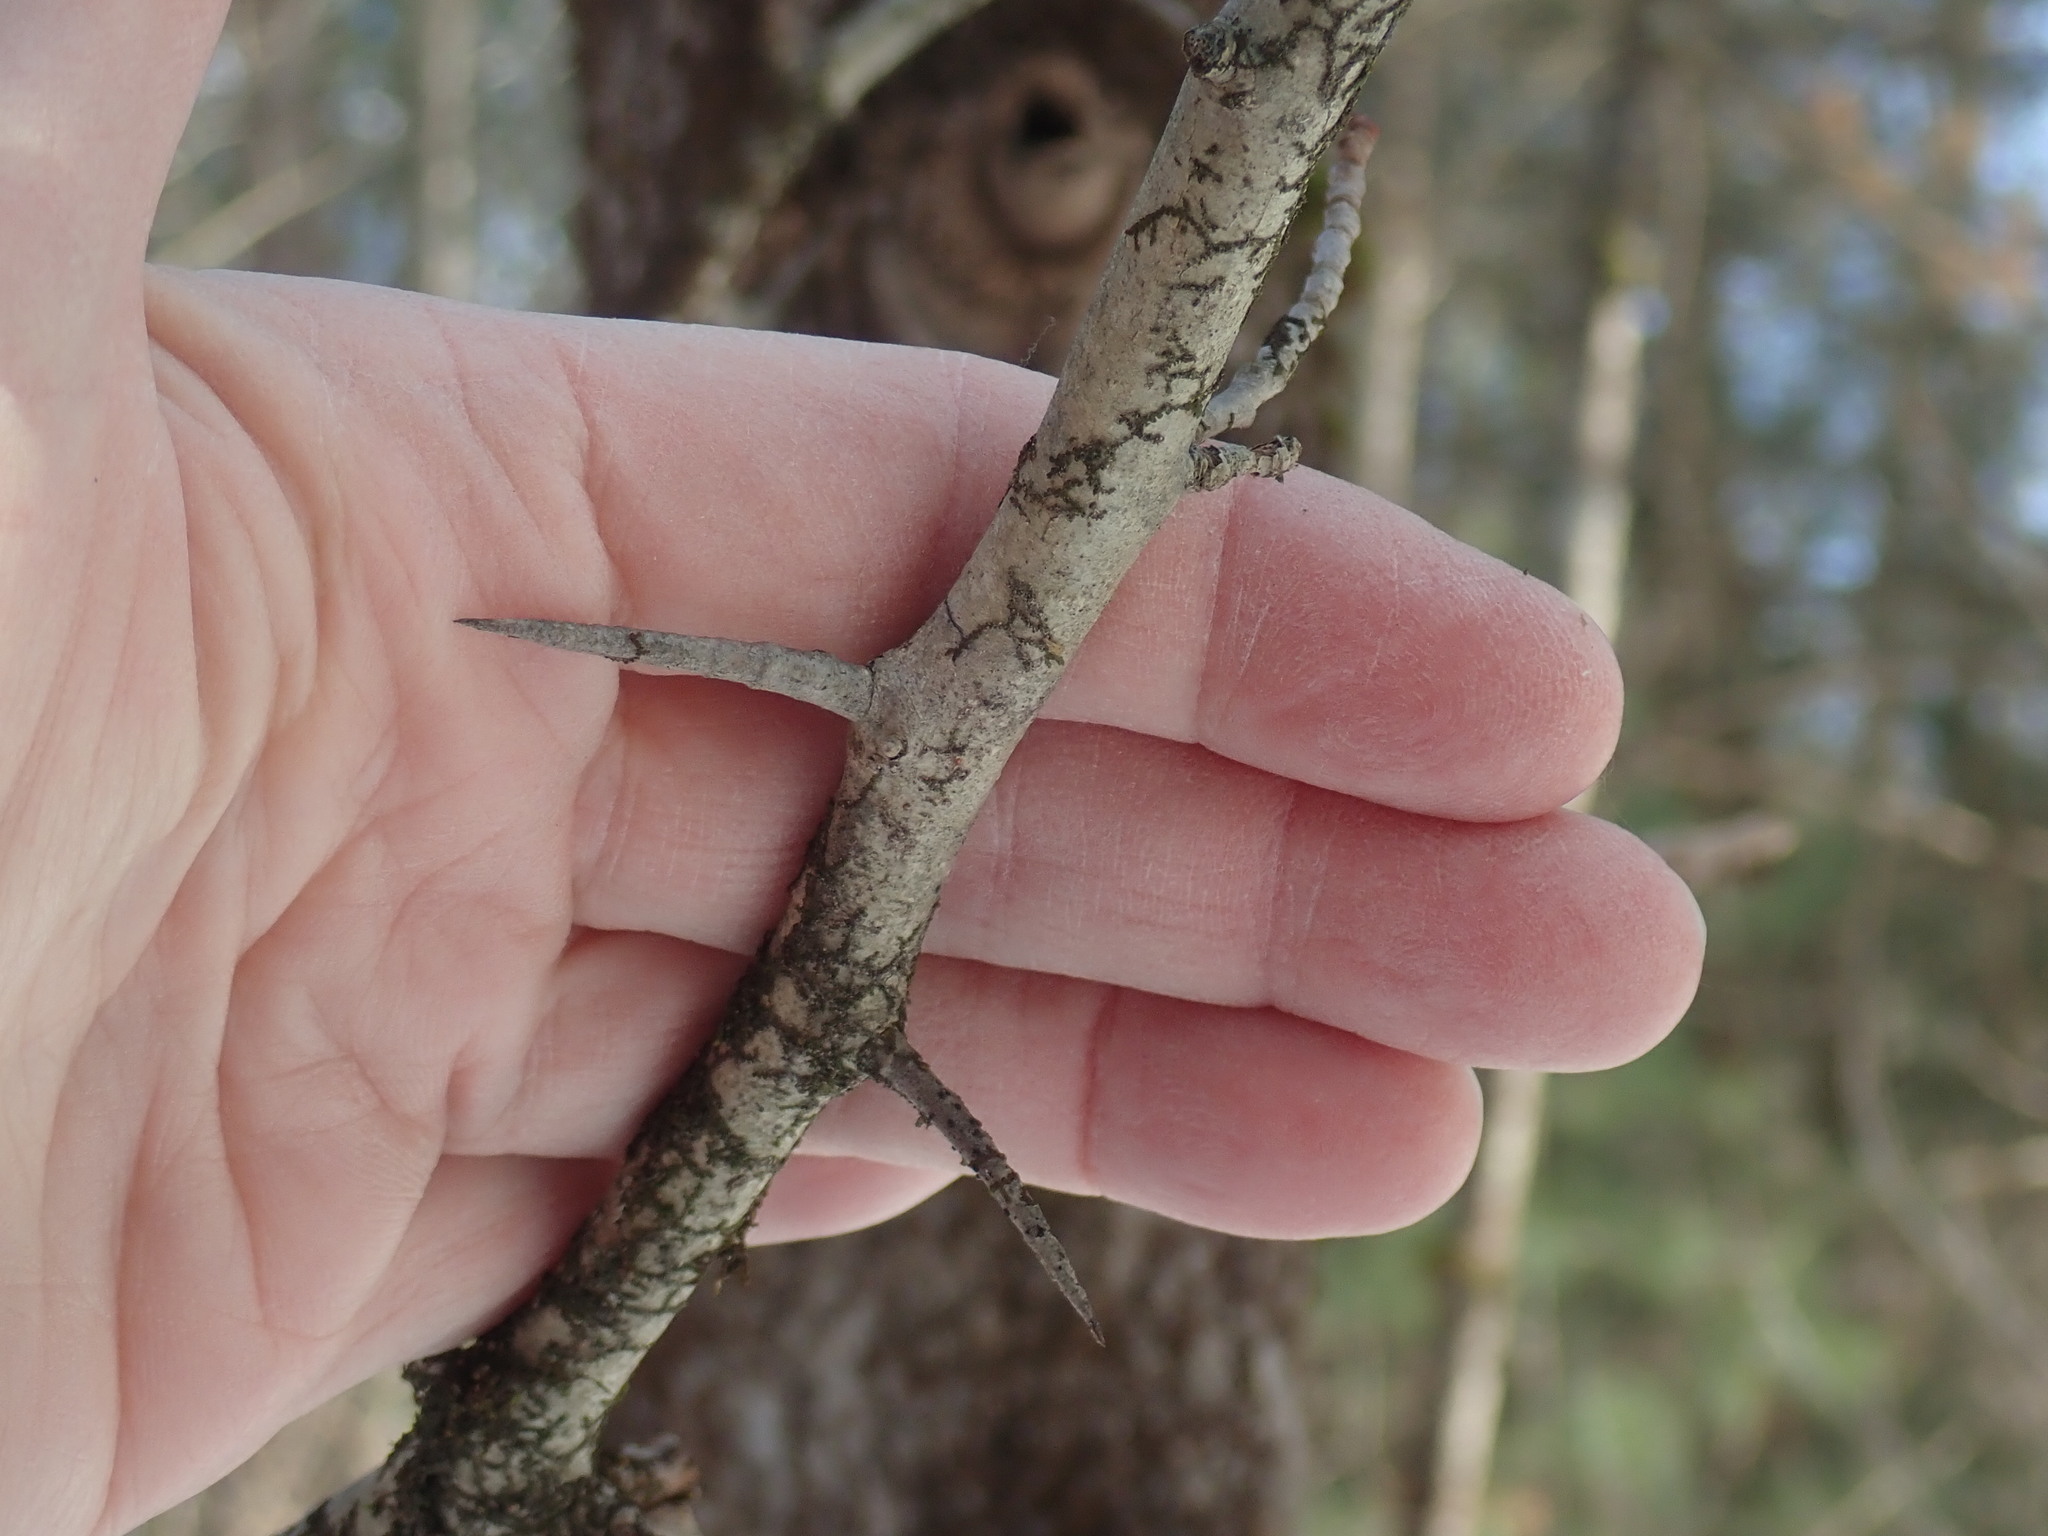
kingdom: Plantae
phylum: Tracheophyta
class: Magnoliopsida
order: Rosales
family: Rosaceae
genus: Crataegus
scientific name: Crataegus
